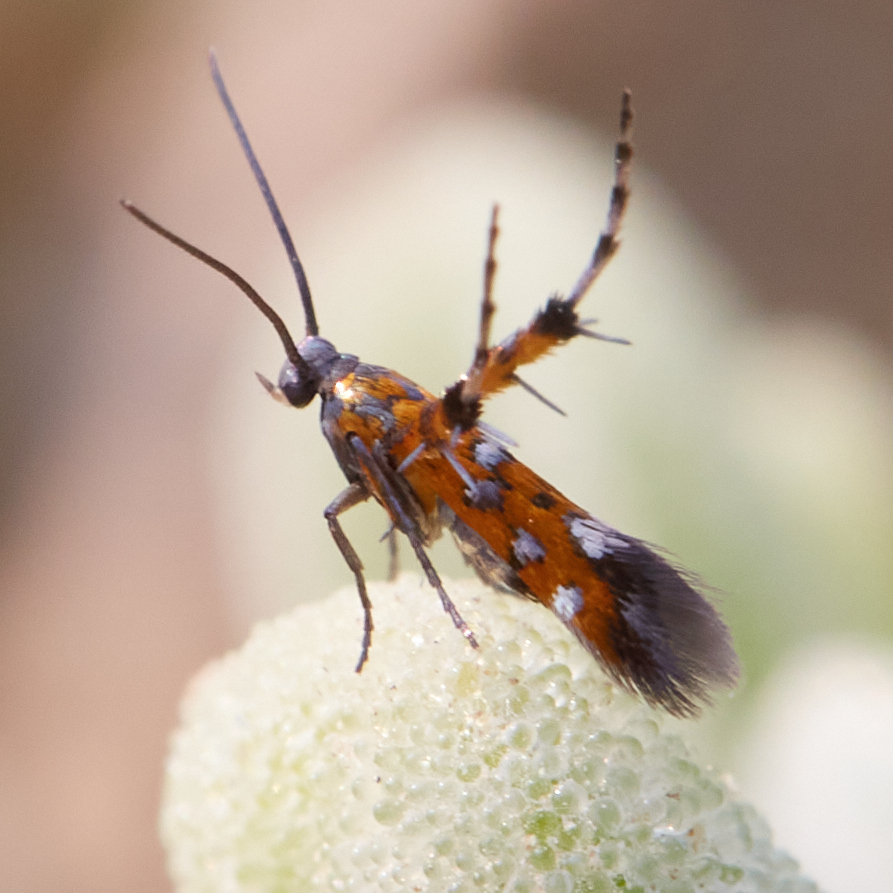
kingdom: Animalia
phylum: Arthropoda
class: Insecta
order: Lepidoptera
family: Heliodinidae
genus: Heliodines
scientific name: Heliodines
